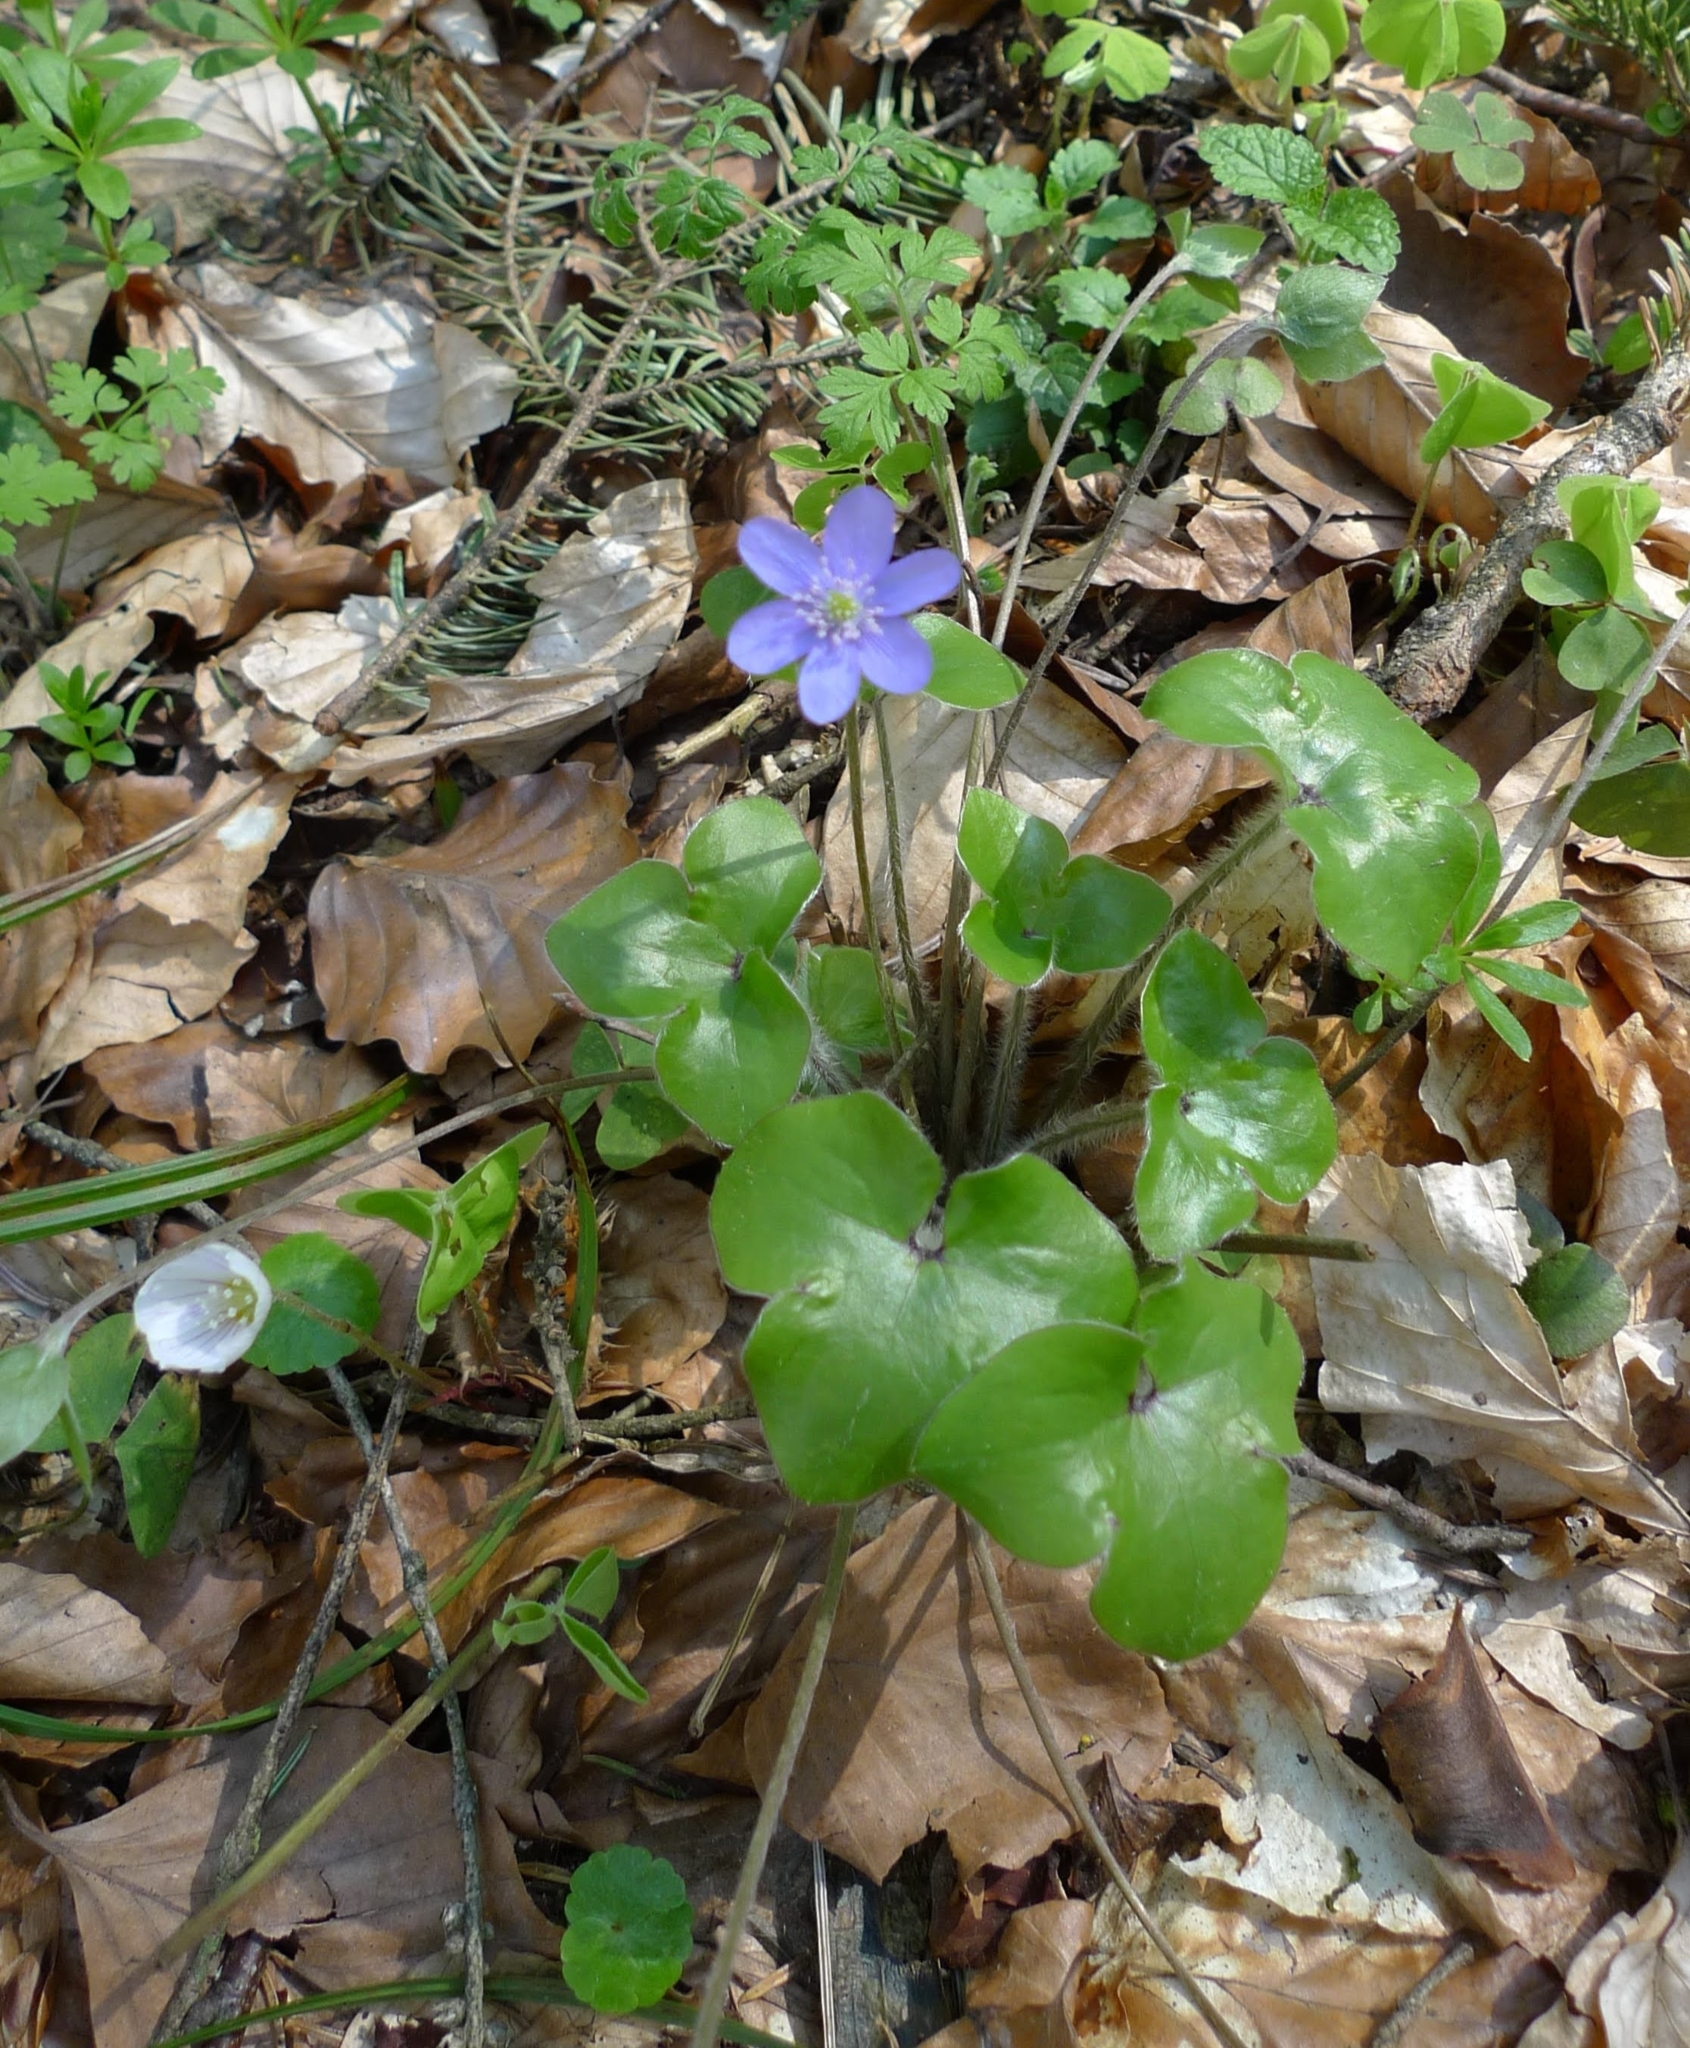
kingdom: Plantae
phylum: Tracheophyta
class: Magnoliopsida
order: Ranunculales
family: Ranunculaceae
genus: Hepatica
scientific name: Hepatica nobilis
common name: Liverleaf
